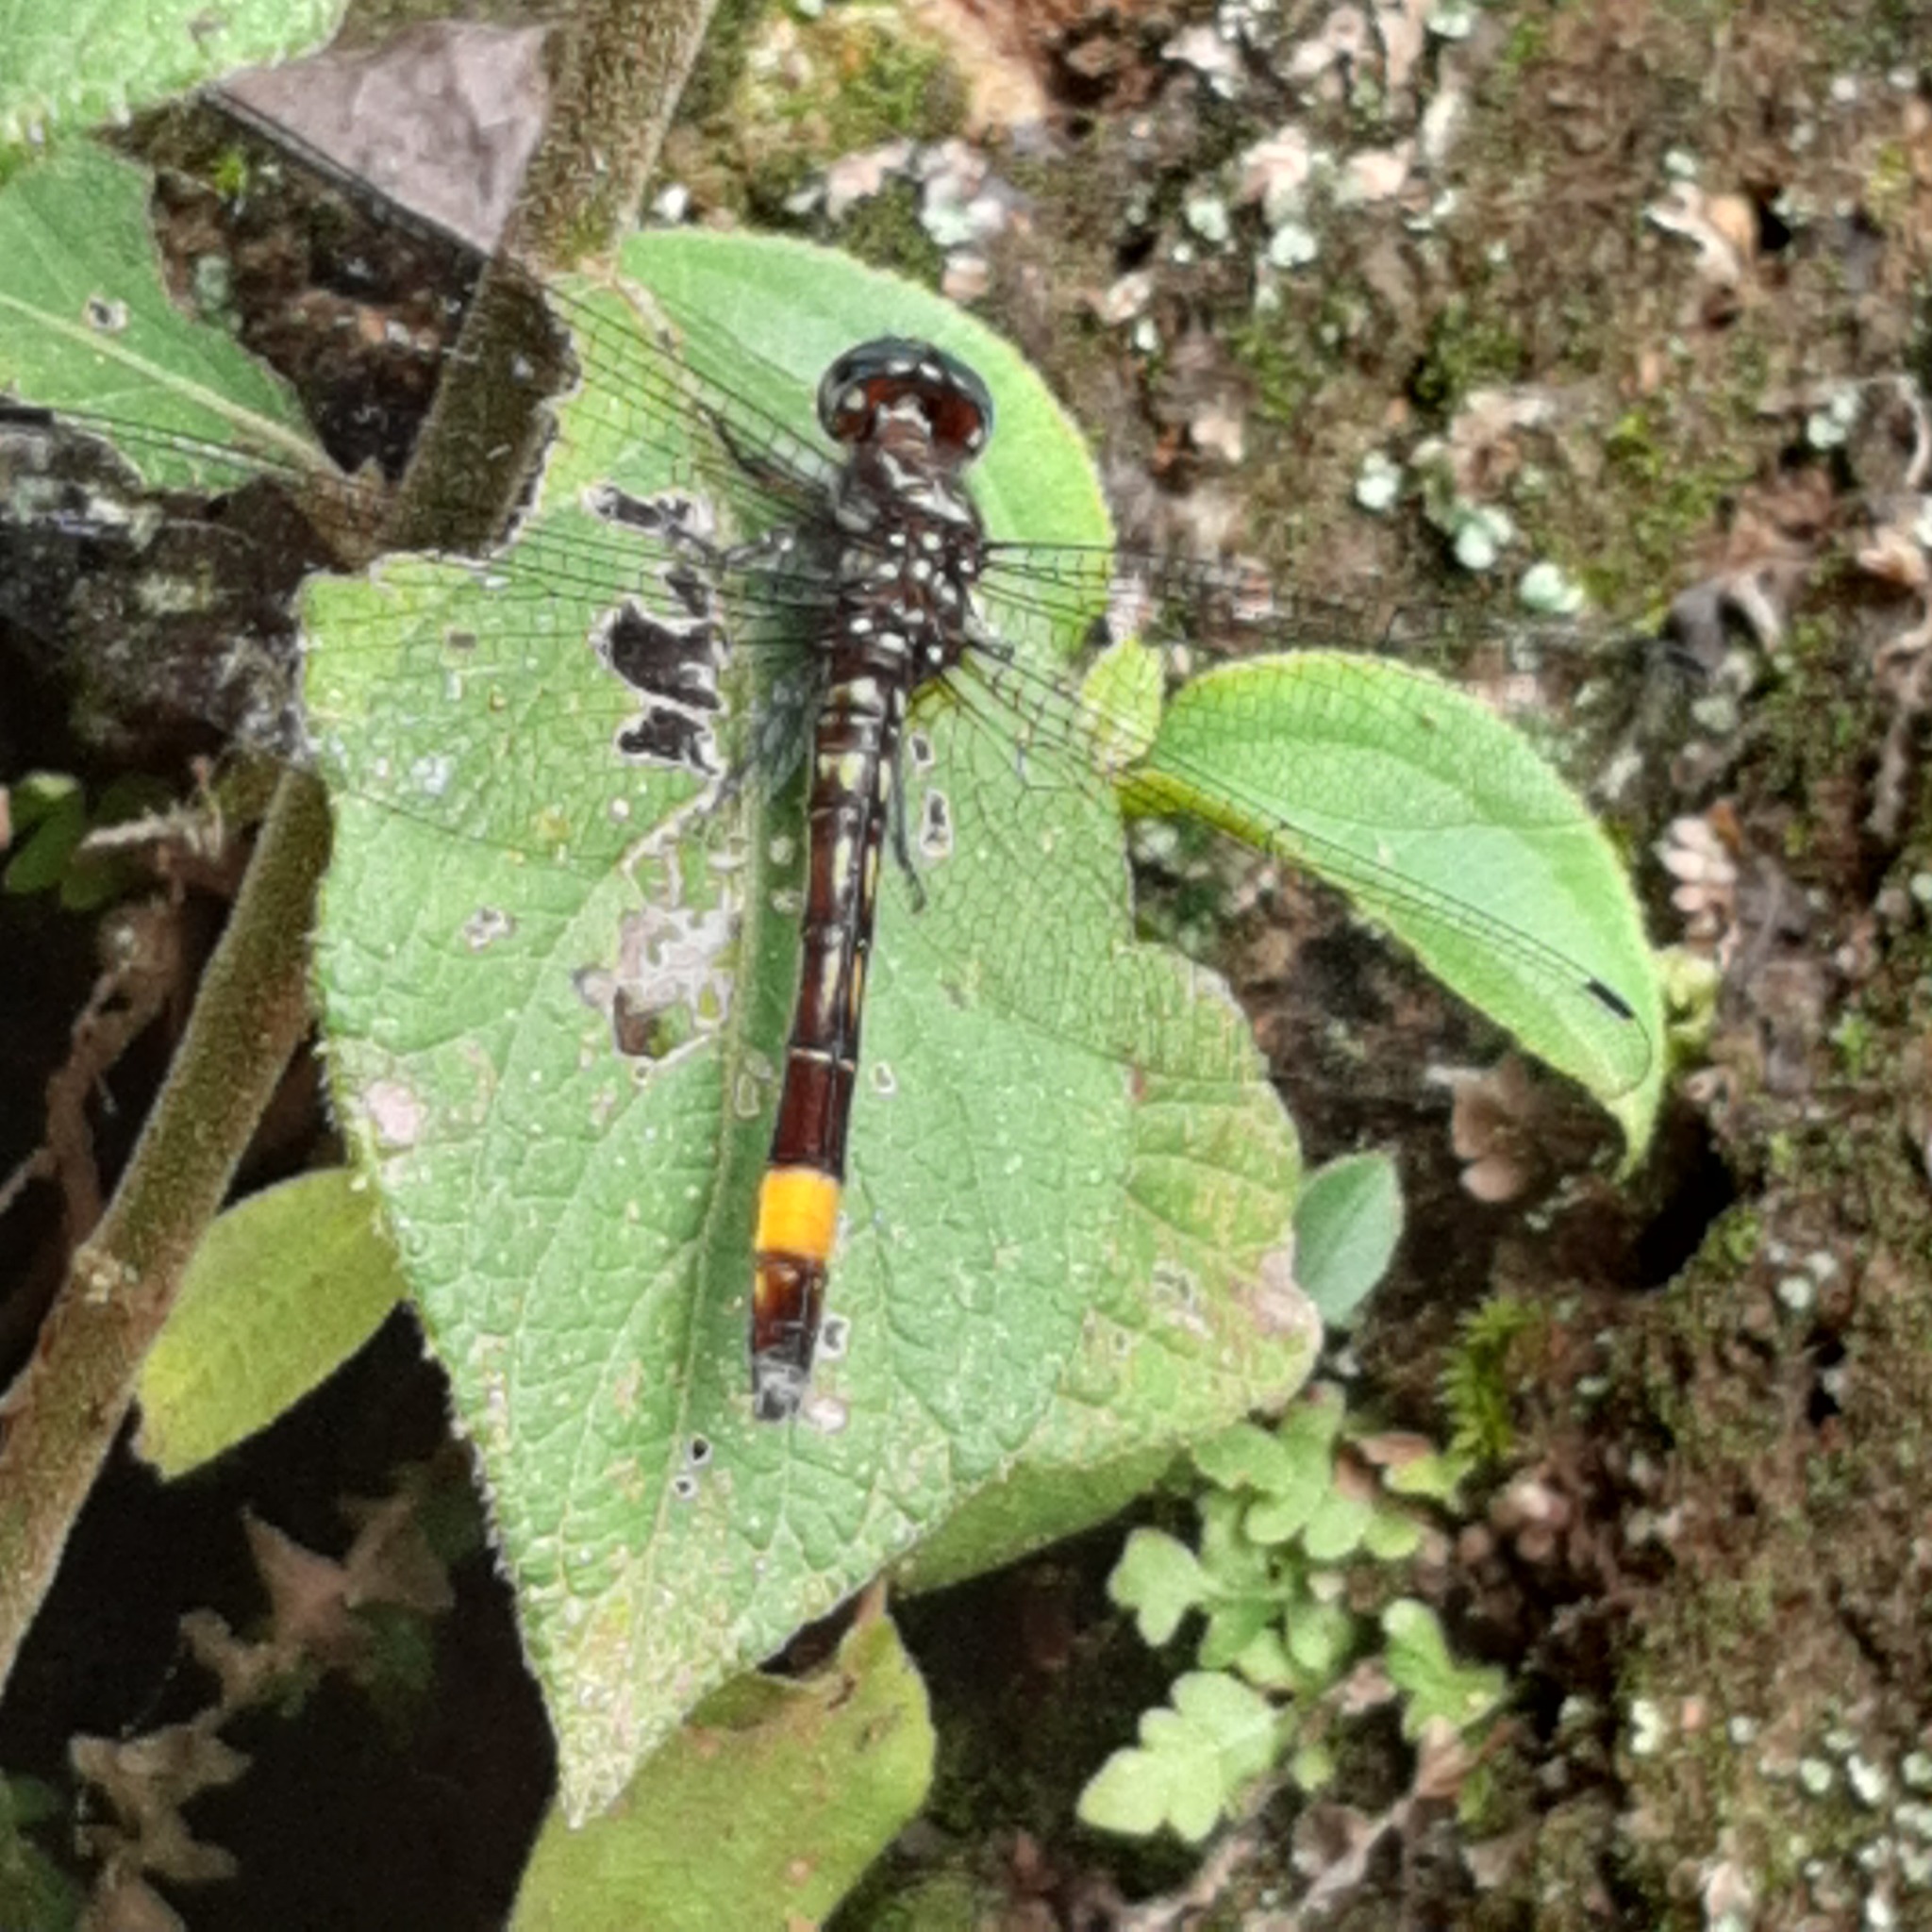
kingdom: Animalia
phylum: Arthropoda
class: Insecta
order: Odonata
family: Libellulidae
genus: Brechmorhoga
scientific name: Brechmorhoga rapax
